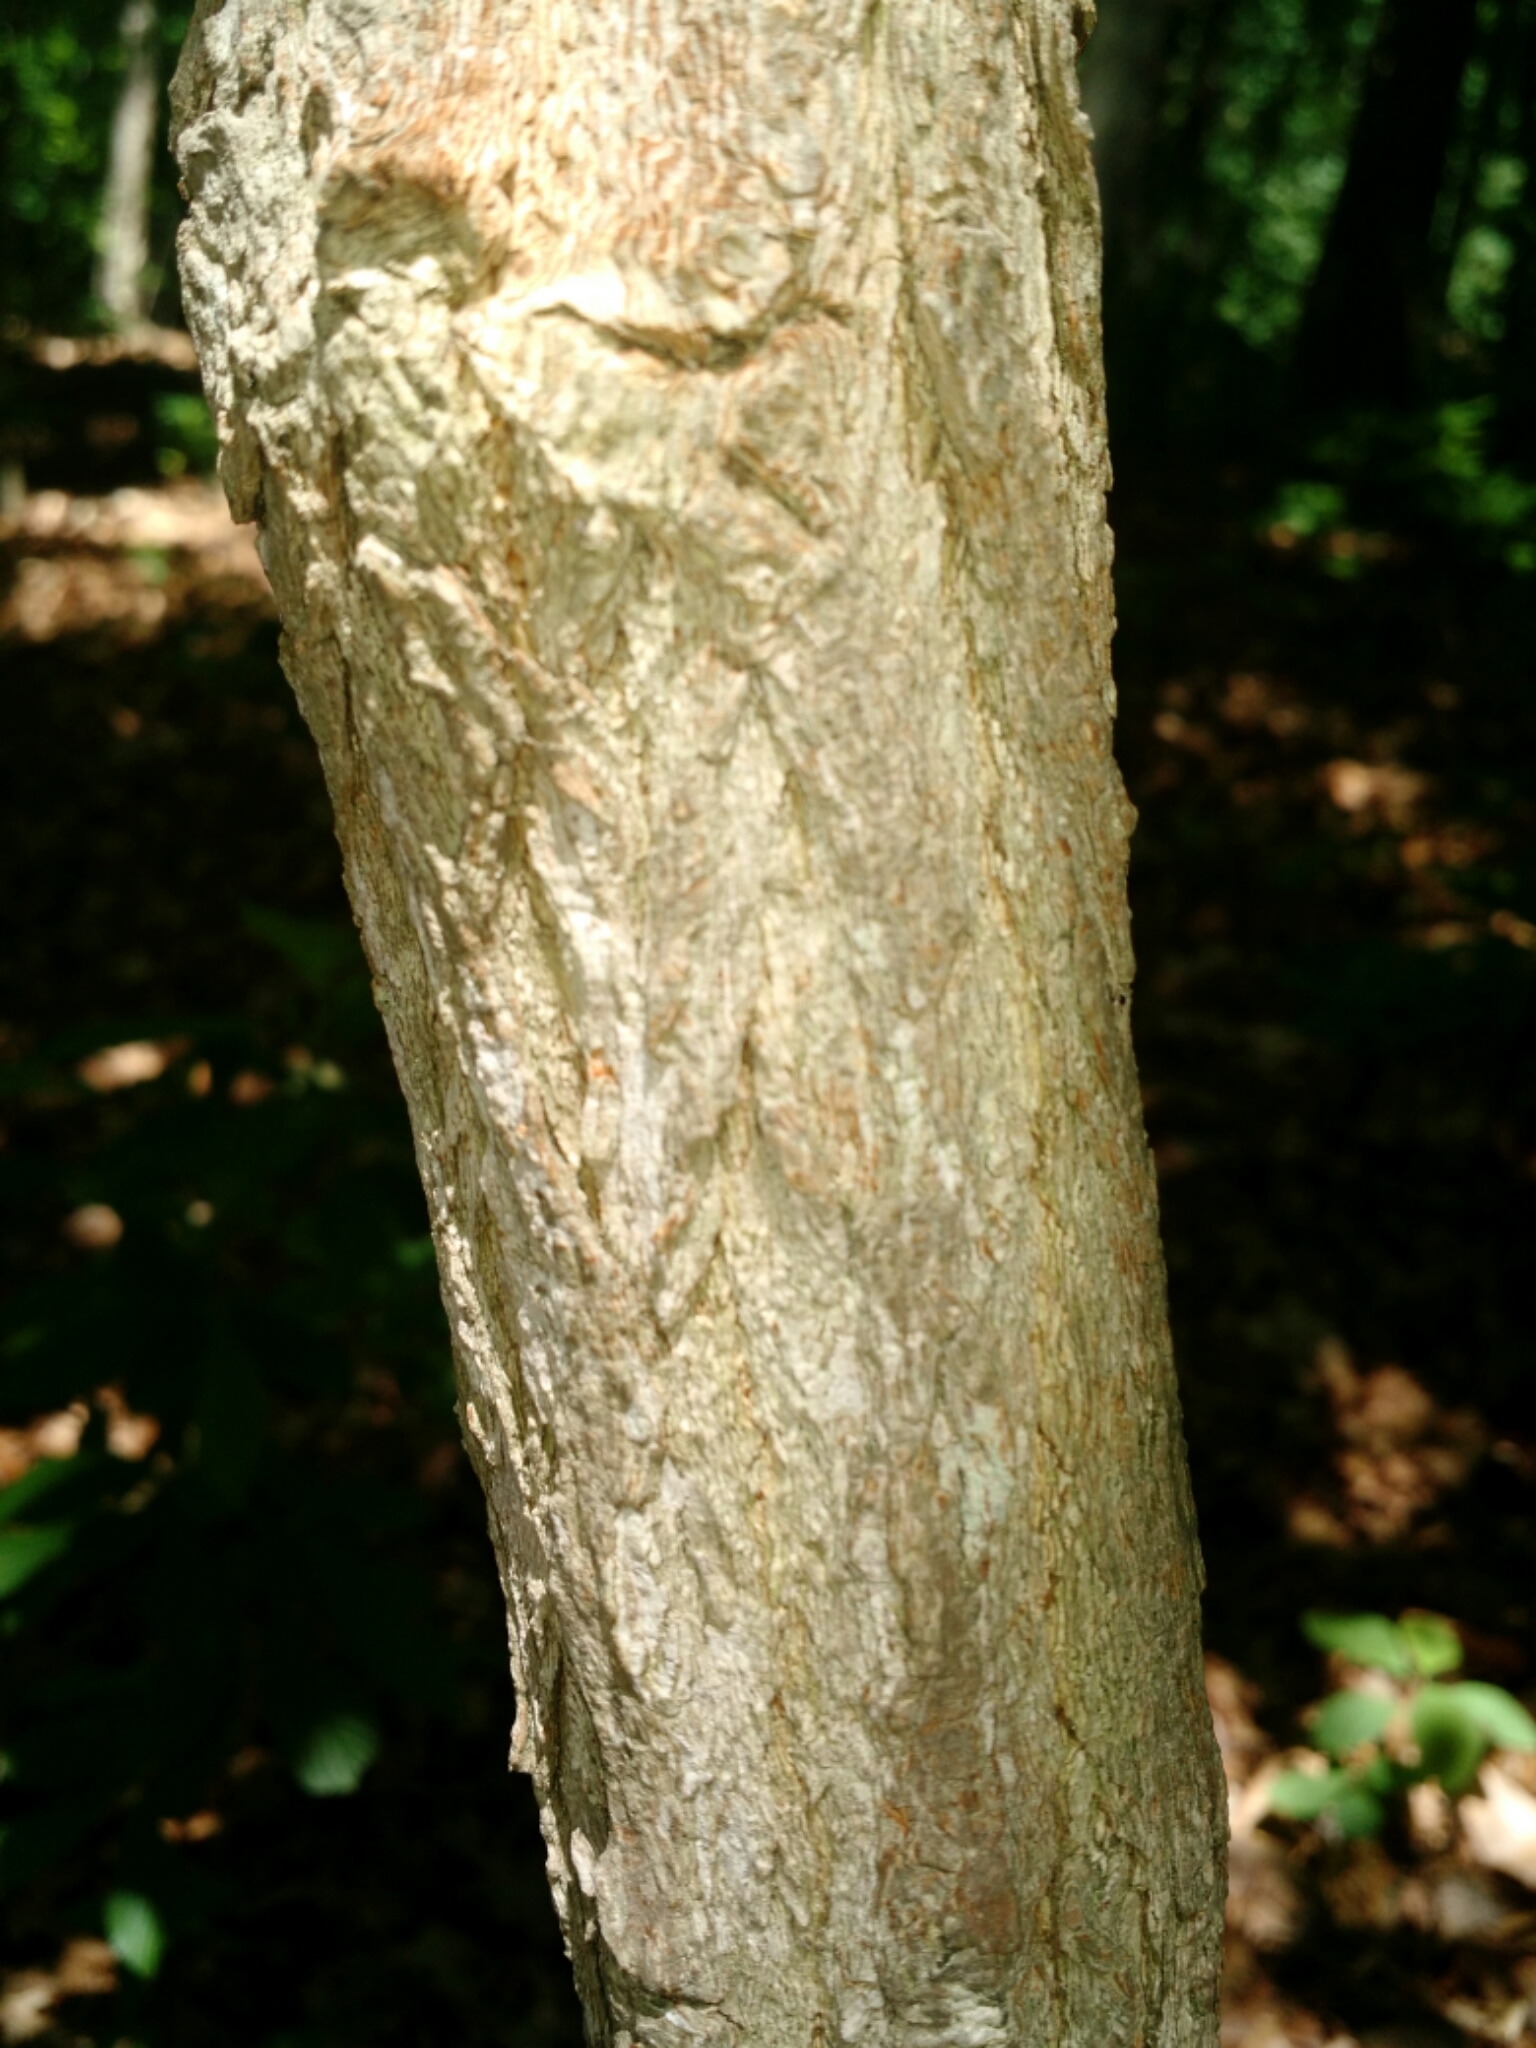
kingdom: Plantae
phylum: Tracheophyta
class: Magnoliopsida
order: Laurales
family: Lauraceae
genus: Sassafras
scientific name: Sassafras albidum
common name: Sassafras
